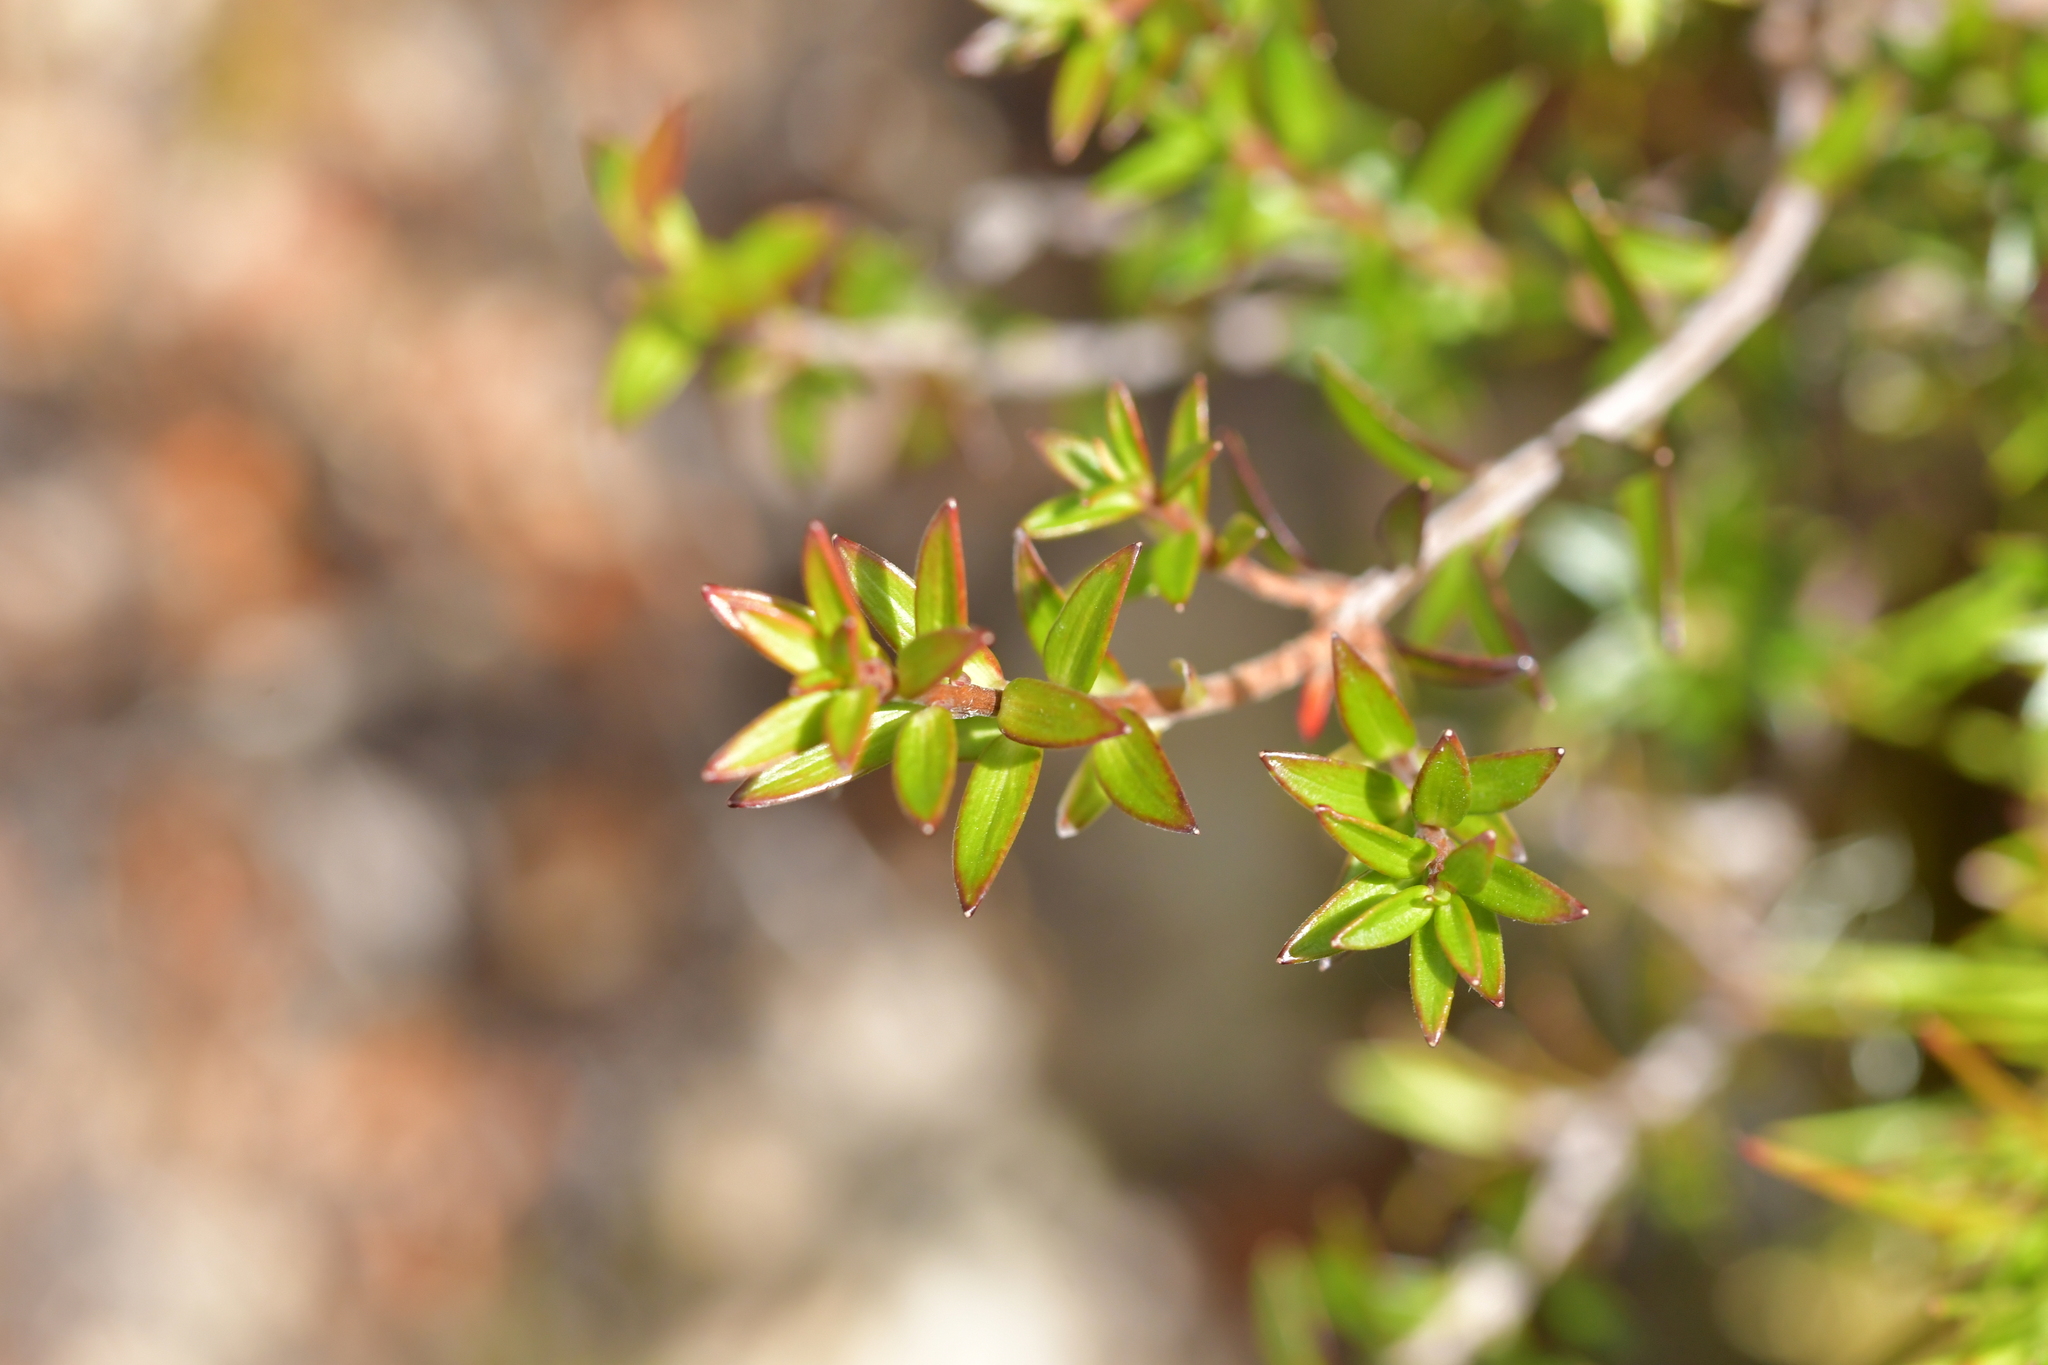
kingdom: Plantae
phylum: Tracheophyta
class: Magnoliopsida
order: Myrtales
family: Myrtaceae
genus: Leptospermum
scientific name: Leptospermum scoparium
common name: Broom tea-tree
